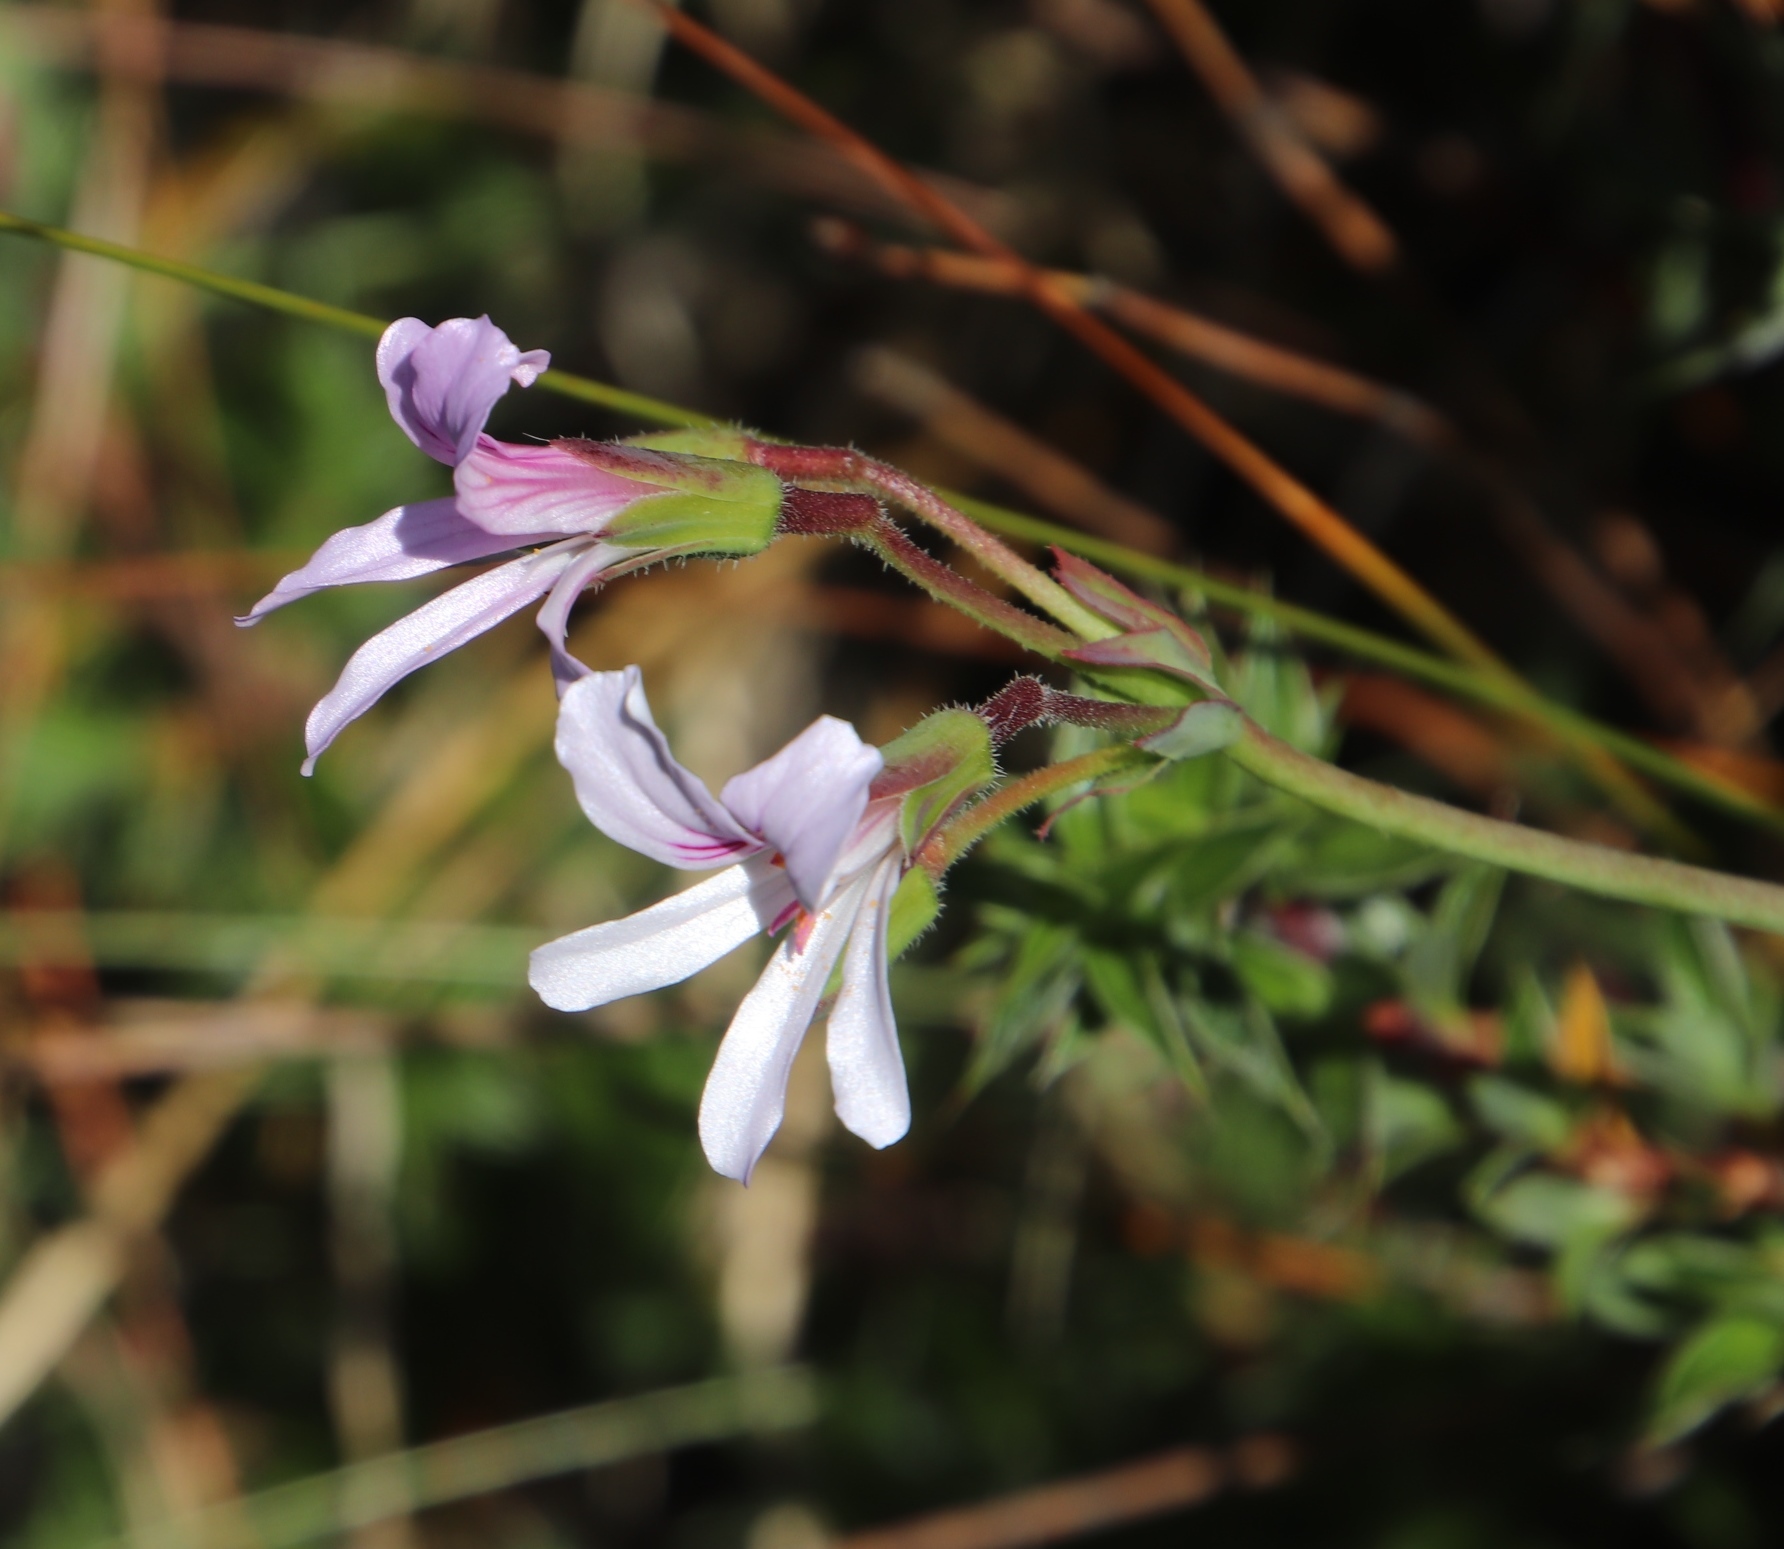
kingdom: Plantae
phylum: Tracheophyta
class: Magnoliopsida
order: Geraniales
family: Geraniaceae
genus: Pelargonium
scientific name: Pelargonium tabulare
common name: Table mountain pelargonium
